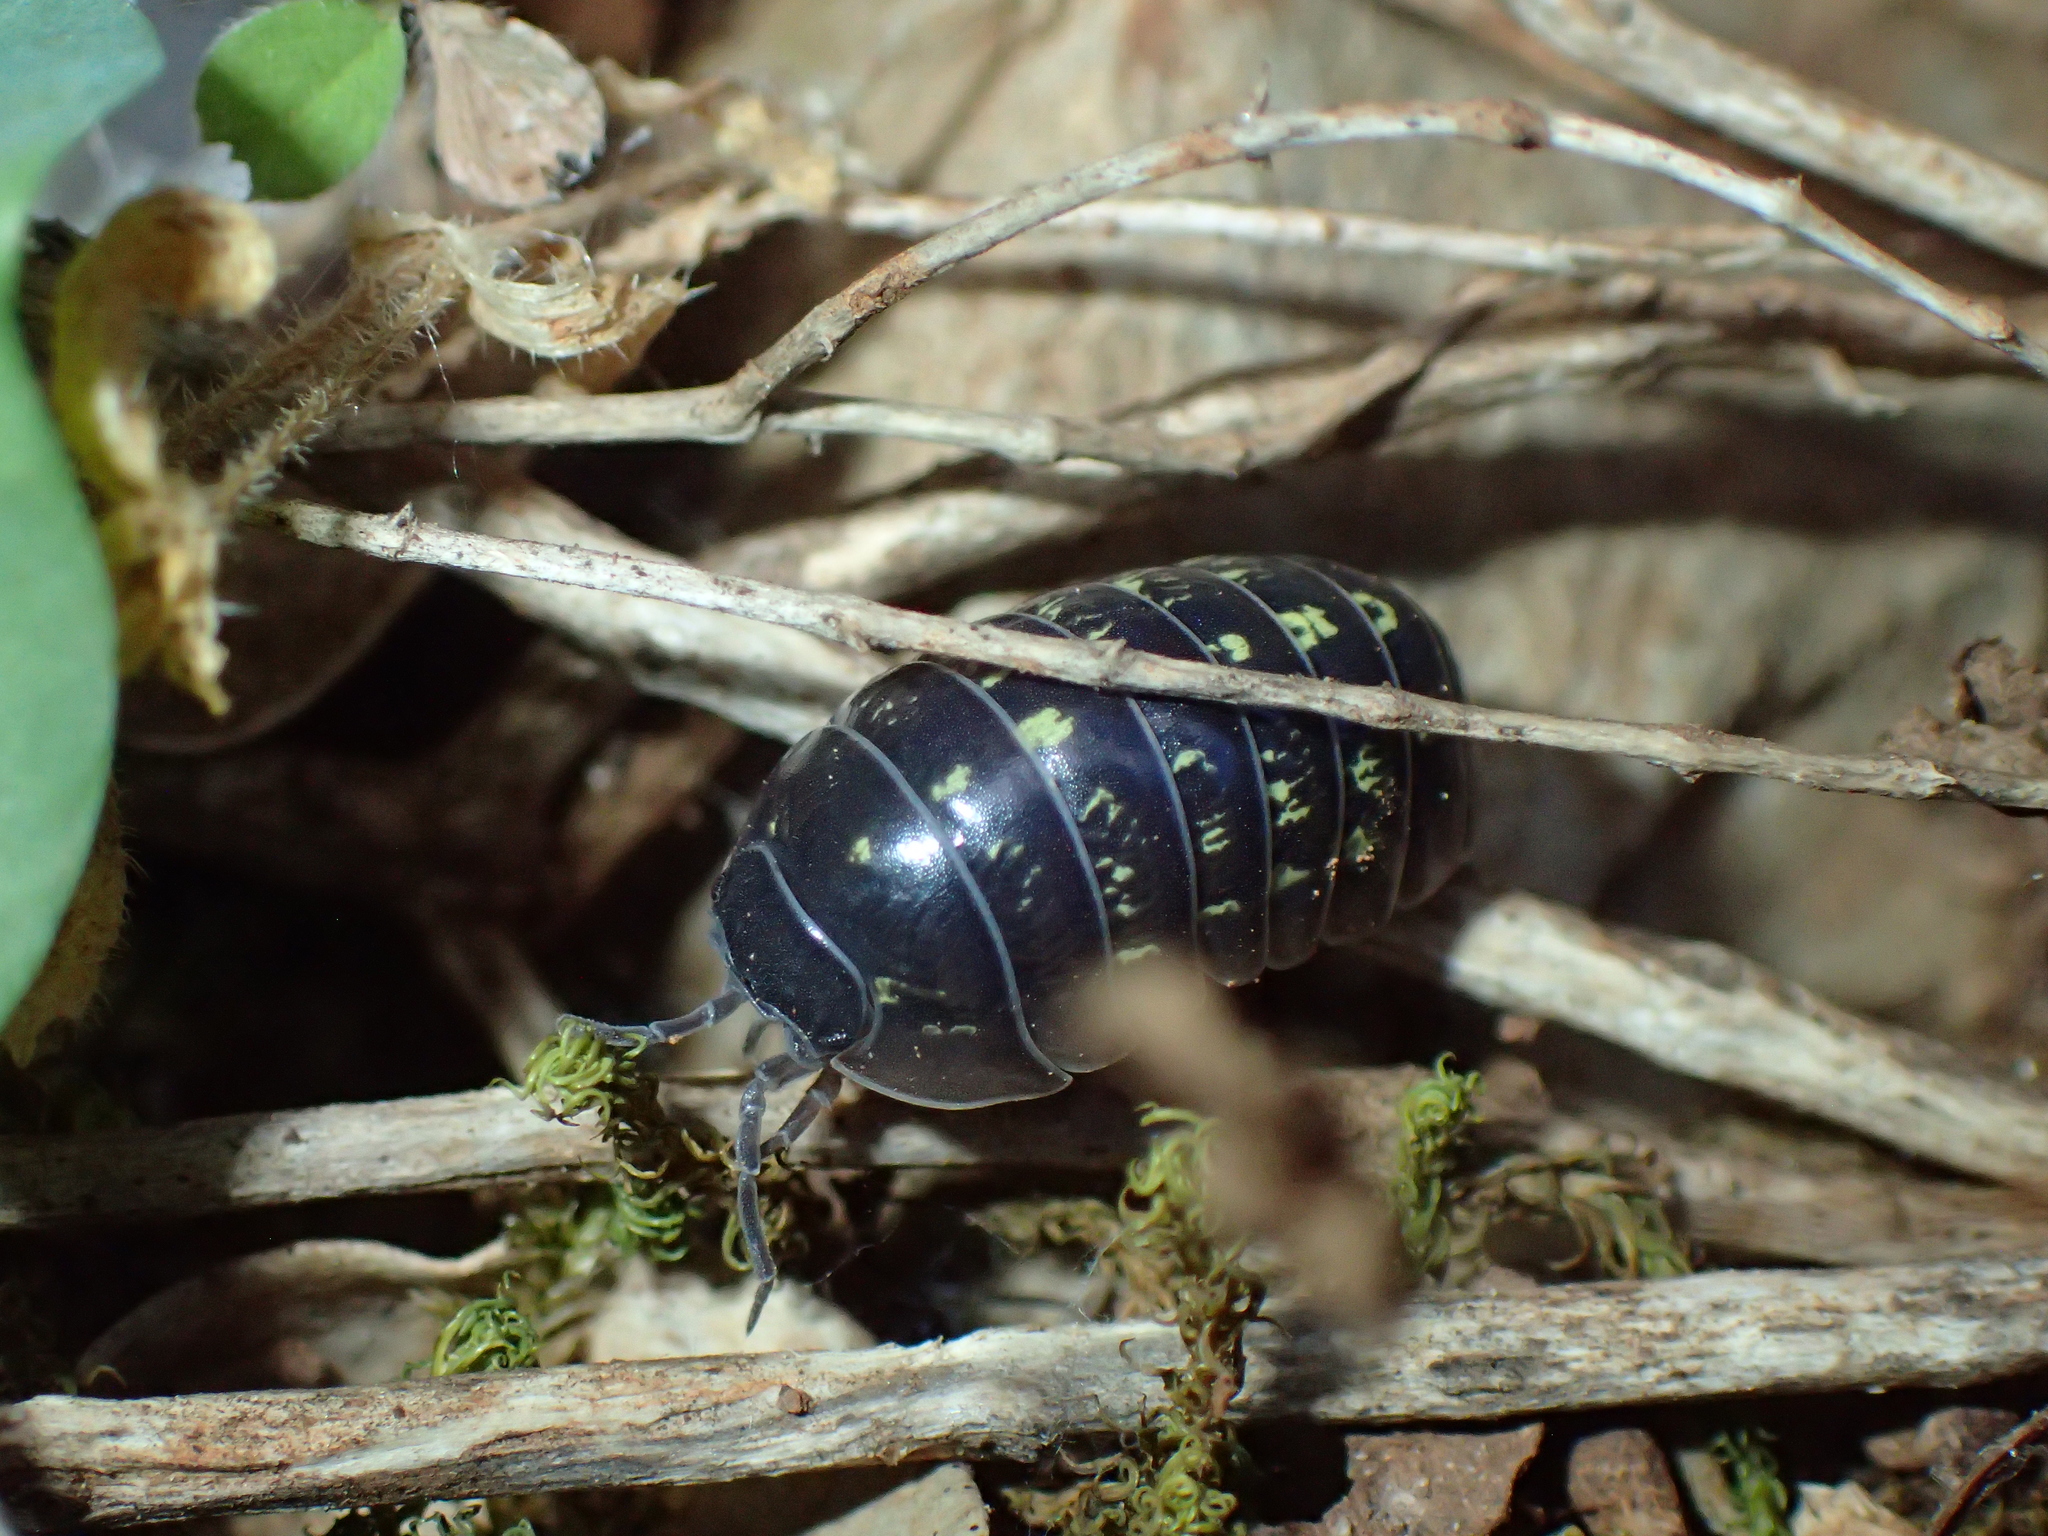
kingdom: Animalia
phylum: Arthropoda
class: Malacostraca
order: Isopoda
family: Armadillidiidae
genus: Armadillidium
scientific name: Armadillidium vulgare
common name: Common pill woodlouse
